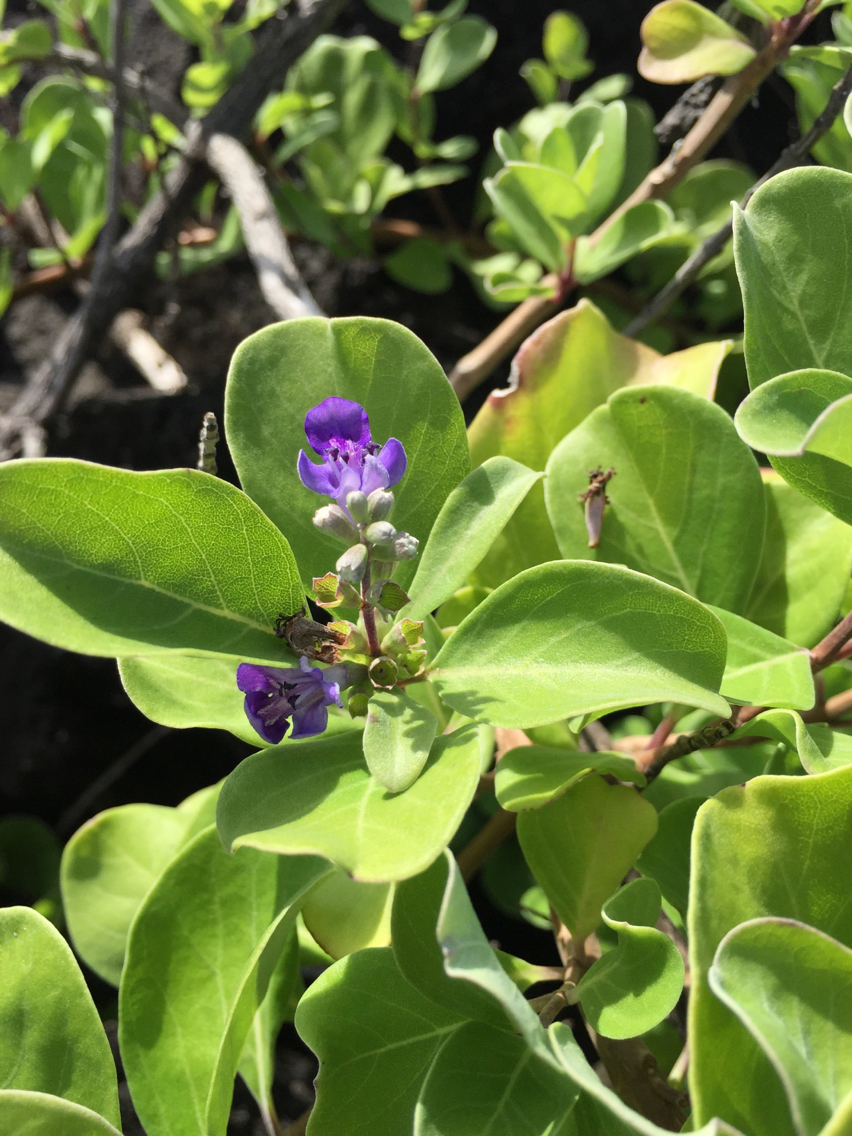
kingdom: Plantae
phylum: Tracheophyta
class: Magnoliopsida
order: Lamiales
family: Lamiaceae
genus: Vitex
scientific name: Vitex rotundifolia
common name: Beach vitex
